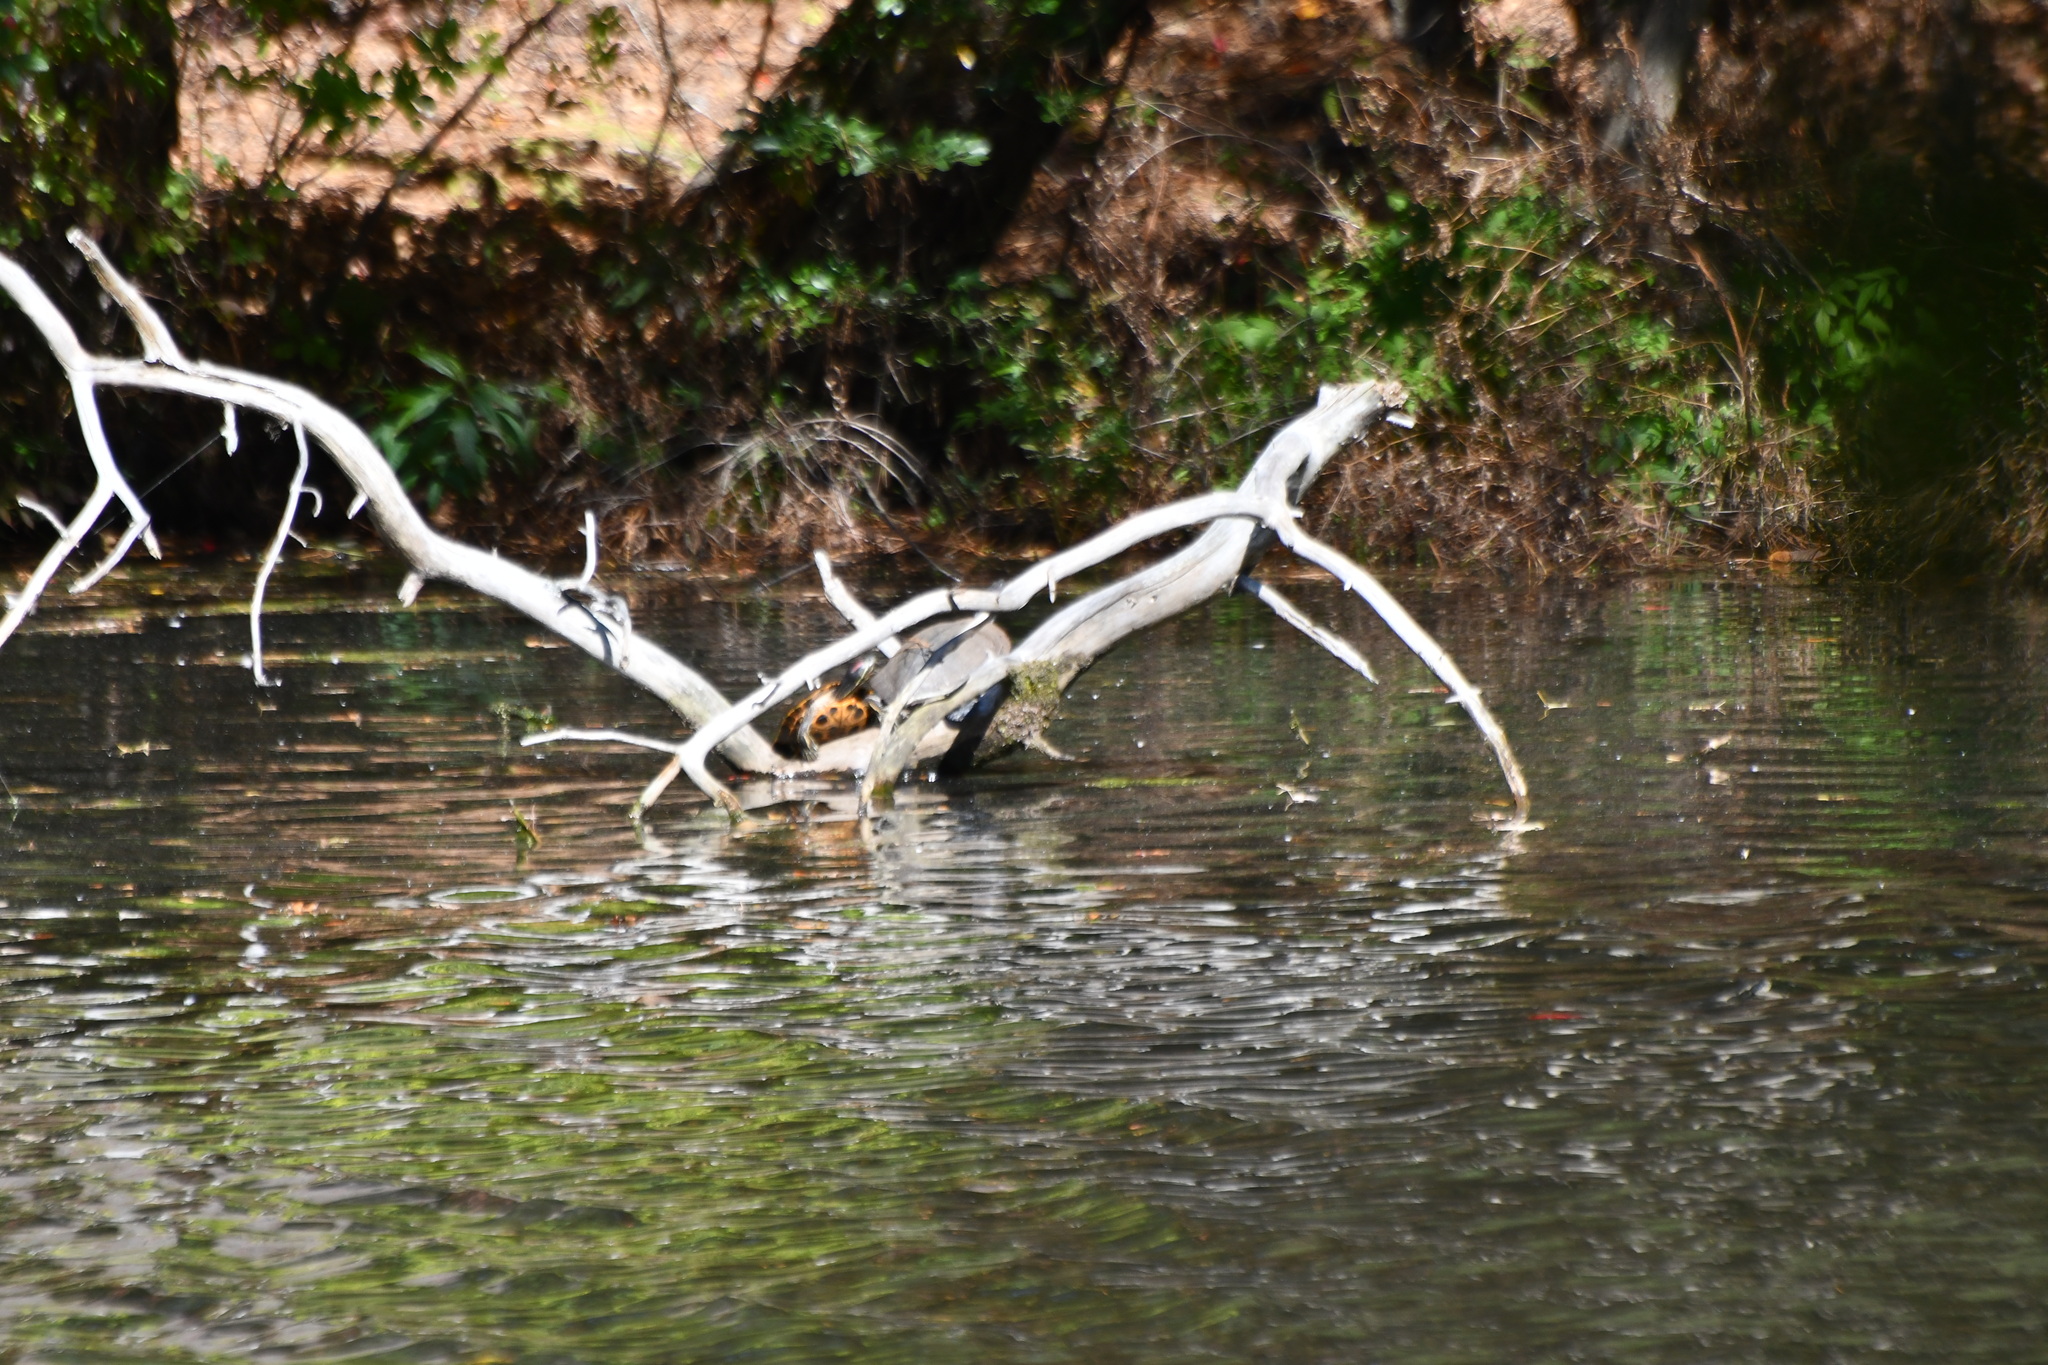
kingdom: Animalia
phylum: Chordata
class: Testudines
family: Emydidae
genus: Trachemys
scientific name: Trachemys scripta
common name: Slider
